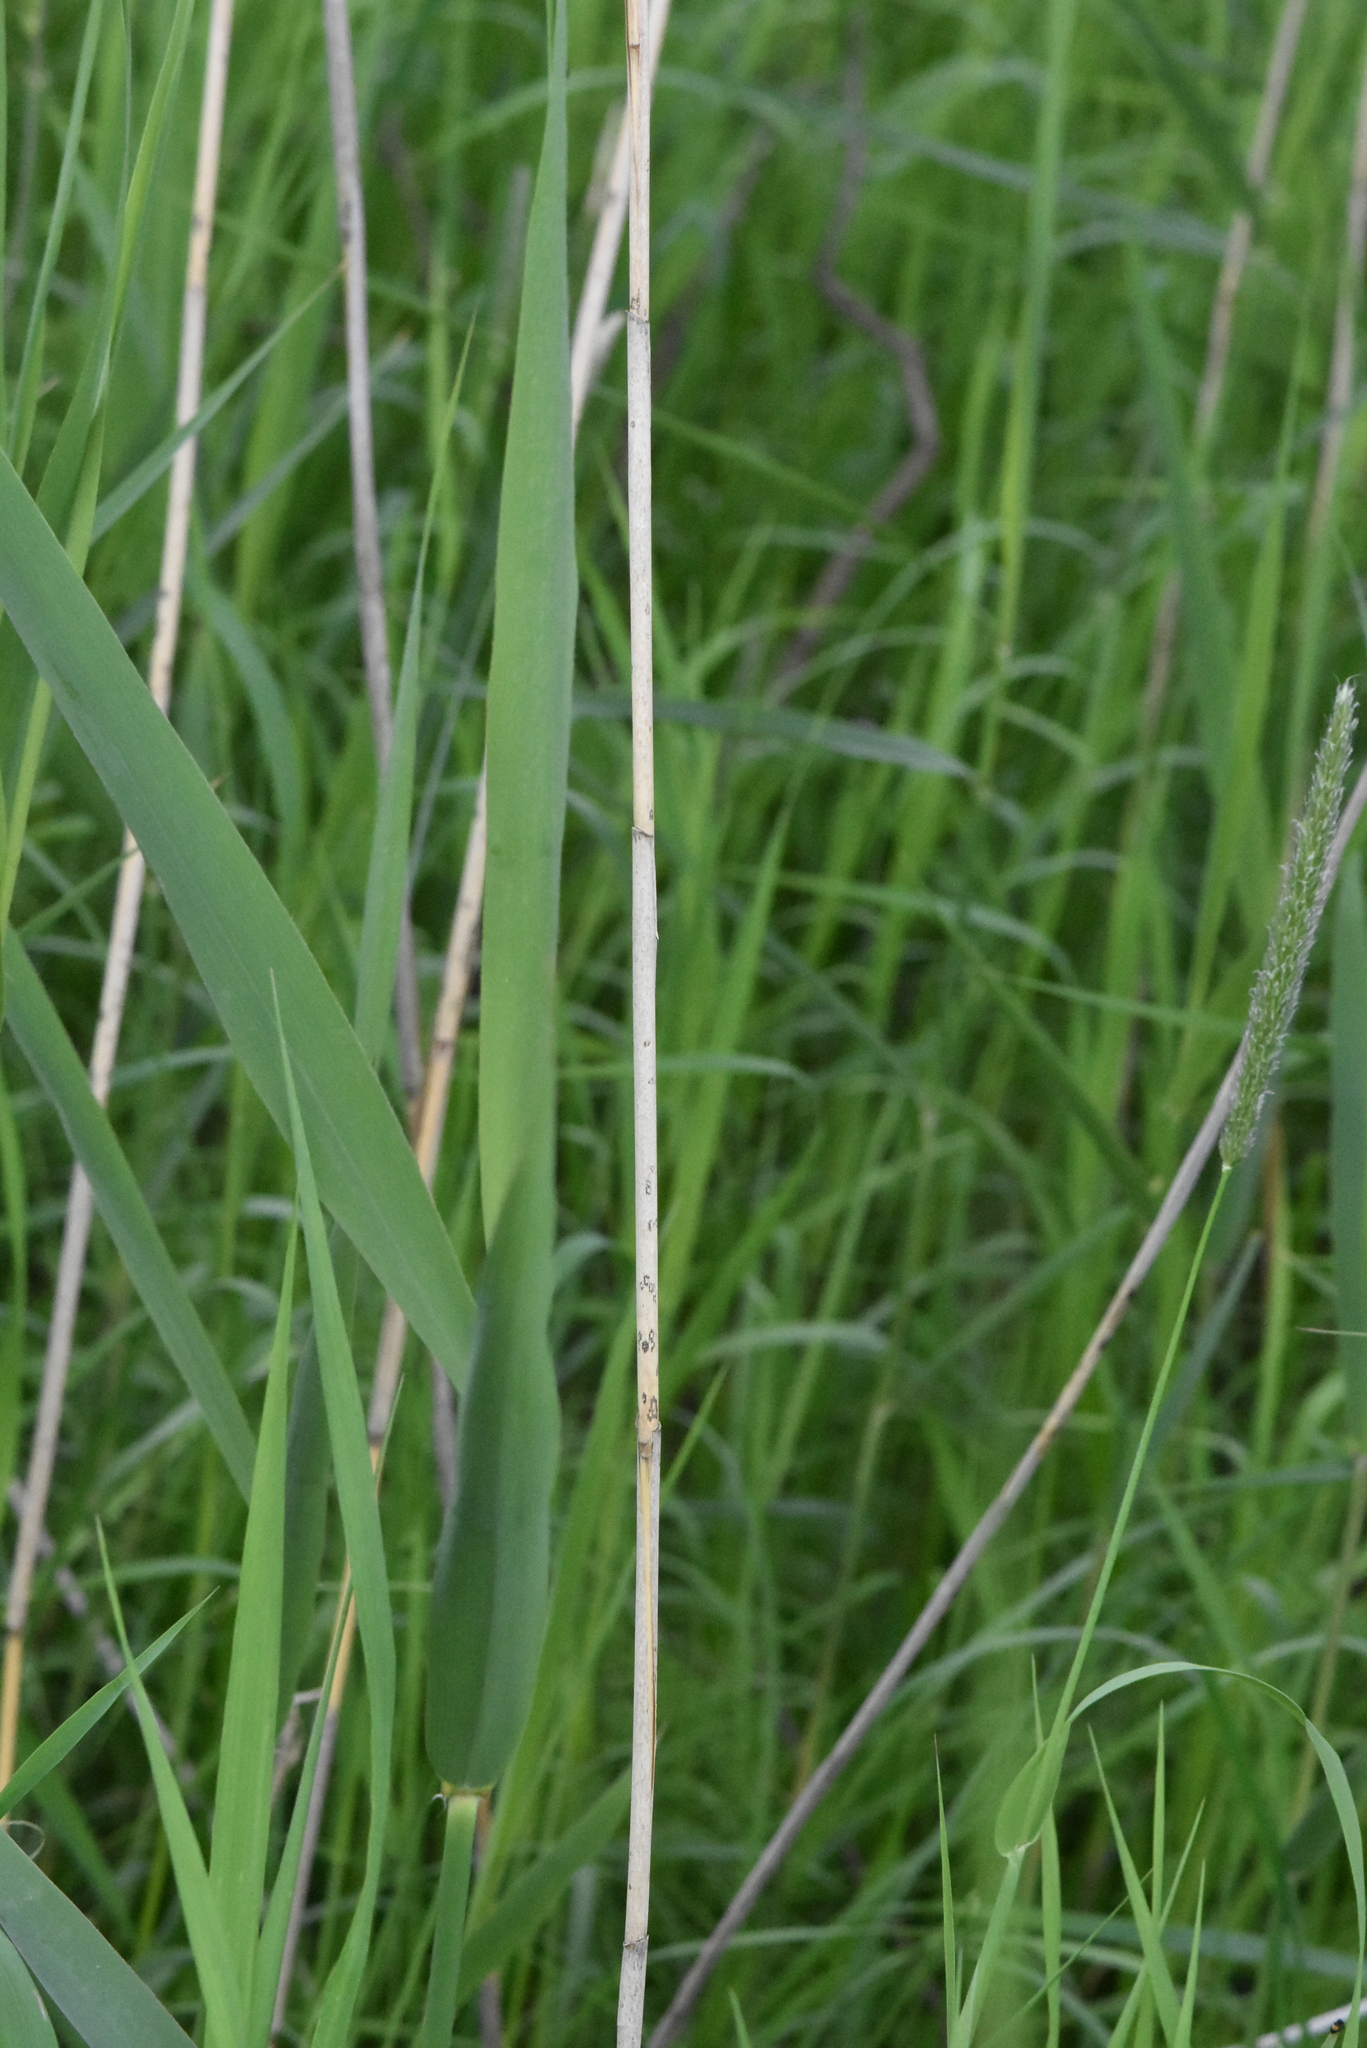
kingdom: Plantae
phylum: Tracheophyta
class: Liliopsida
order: Poales
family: Poaceae
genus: Phragmites
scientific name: Phragmites australis
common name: Common reed
